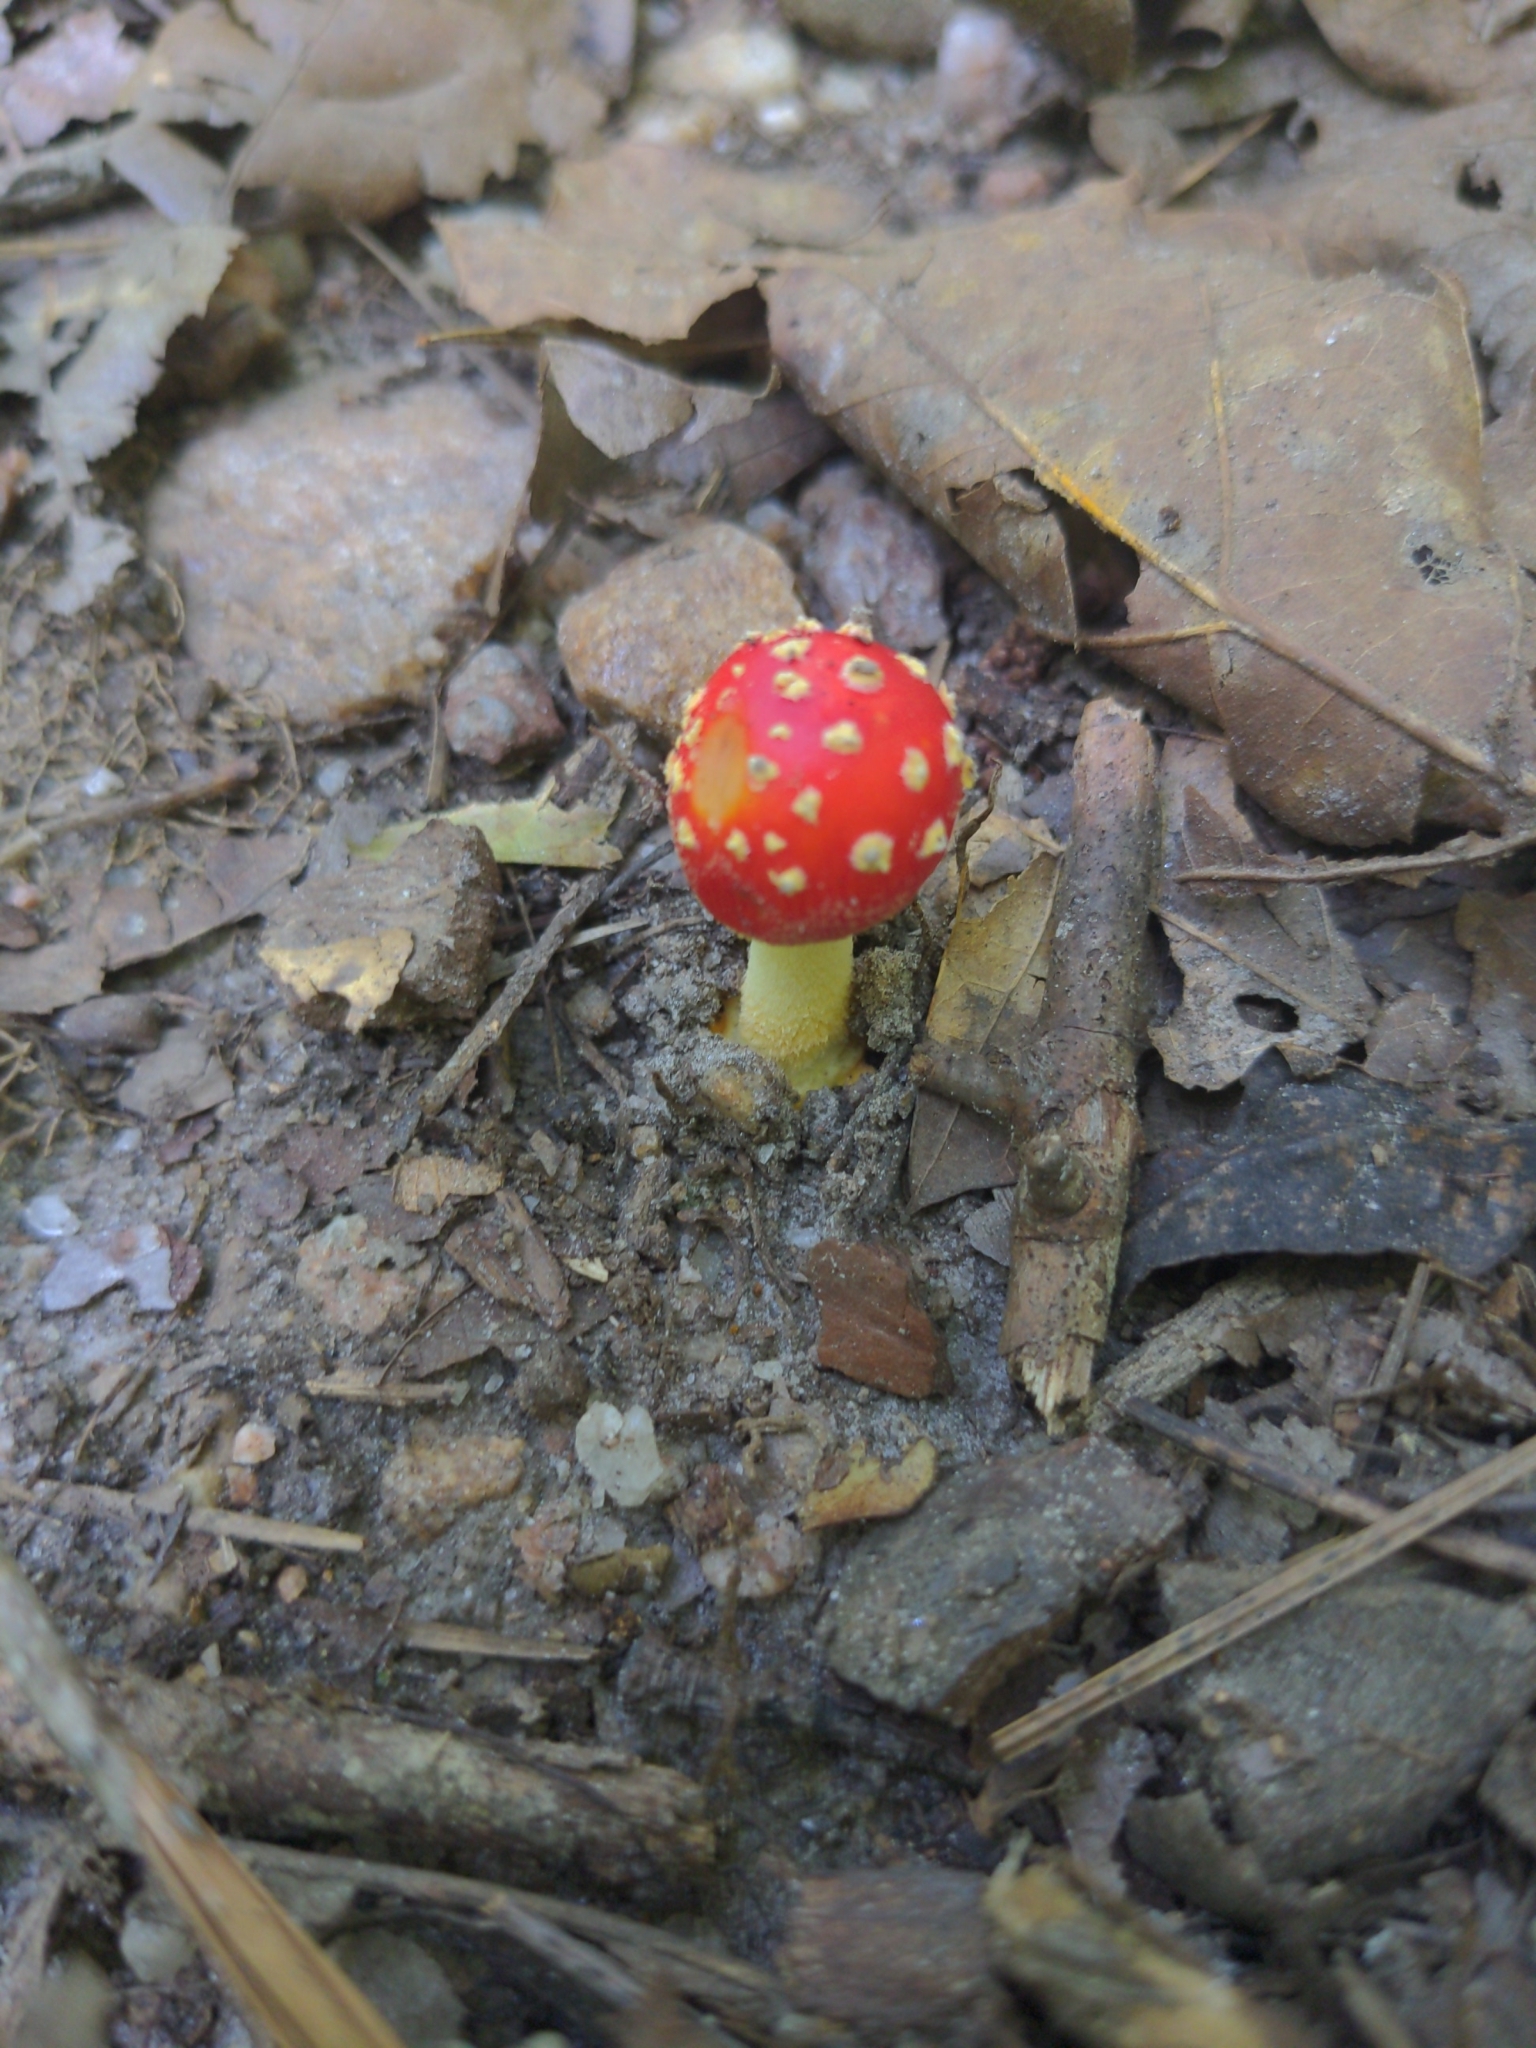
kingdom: Fungi
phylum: Basidiomycota
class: Agaricomycetes
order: Agaricales
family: Amanitaceae
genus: Amanita
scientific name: Amanita parcivolvata
